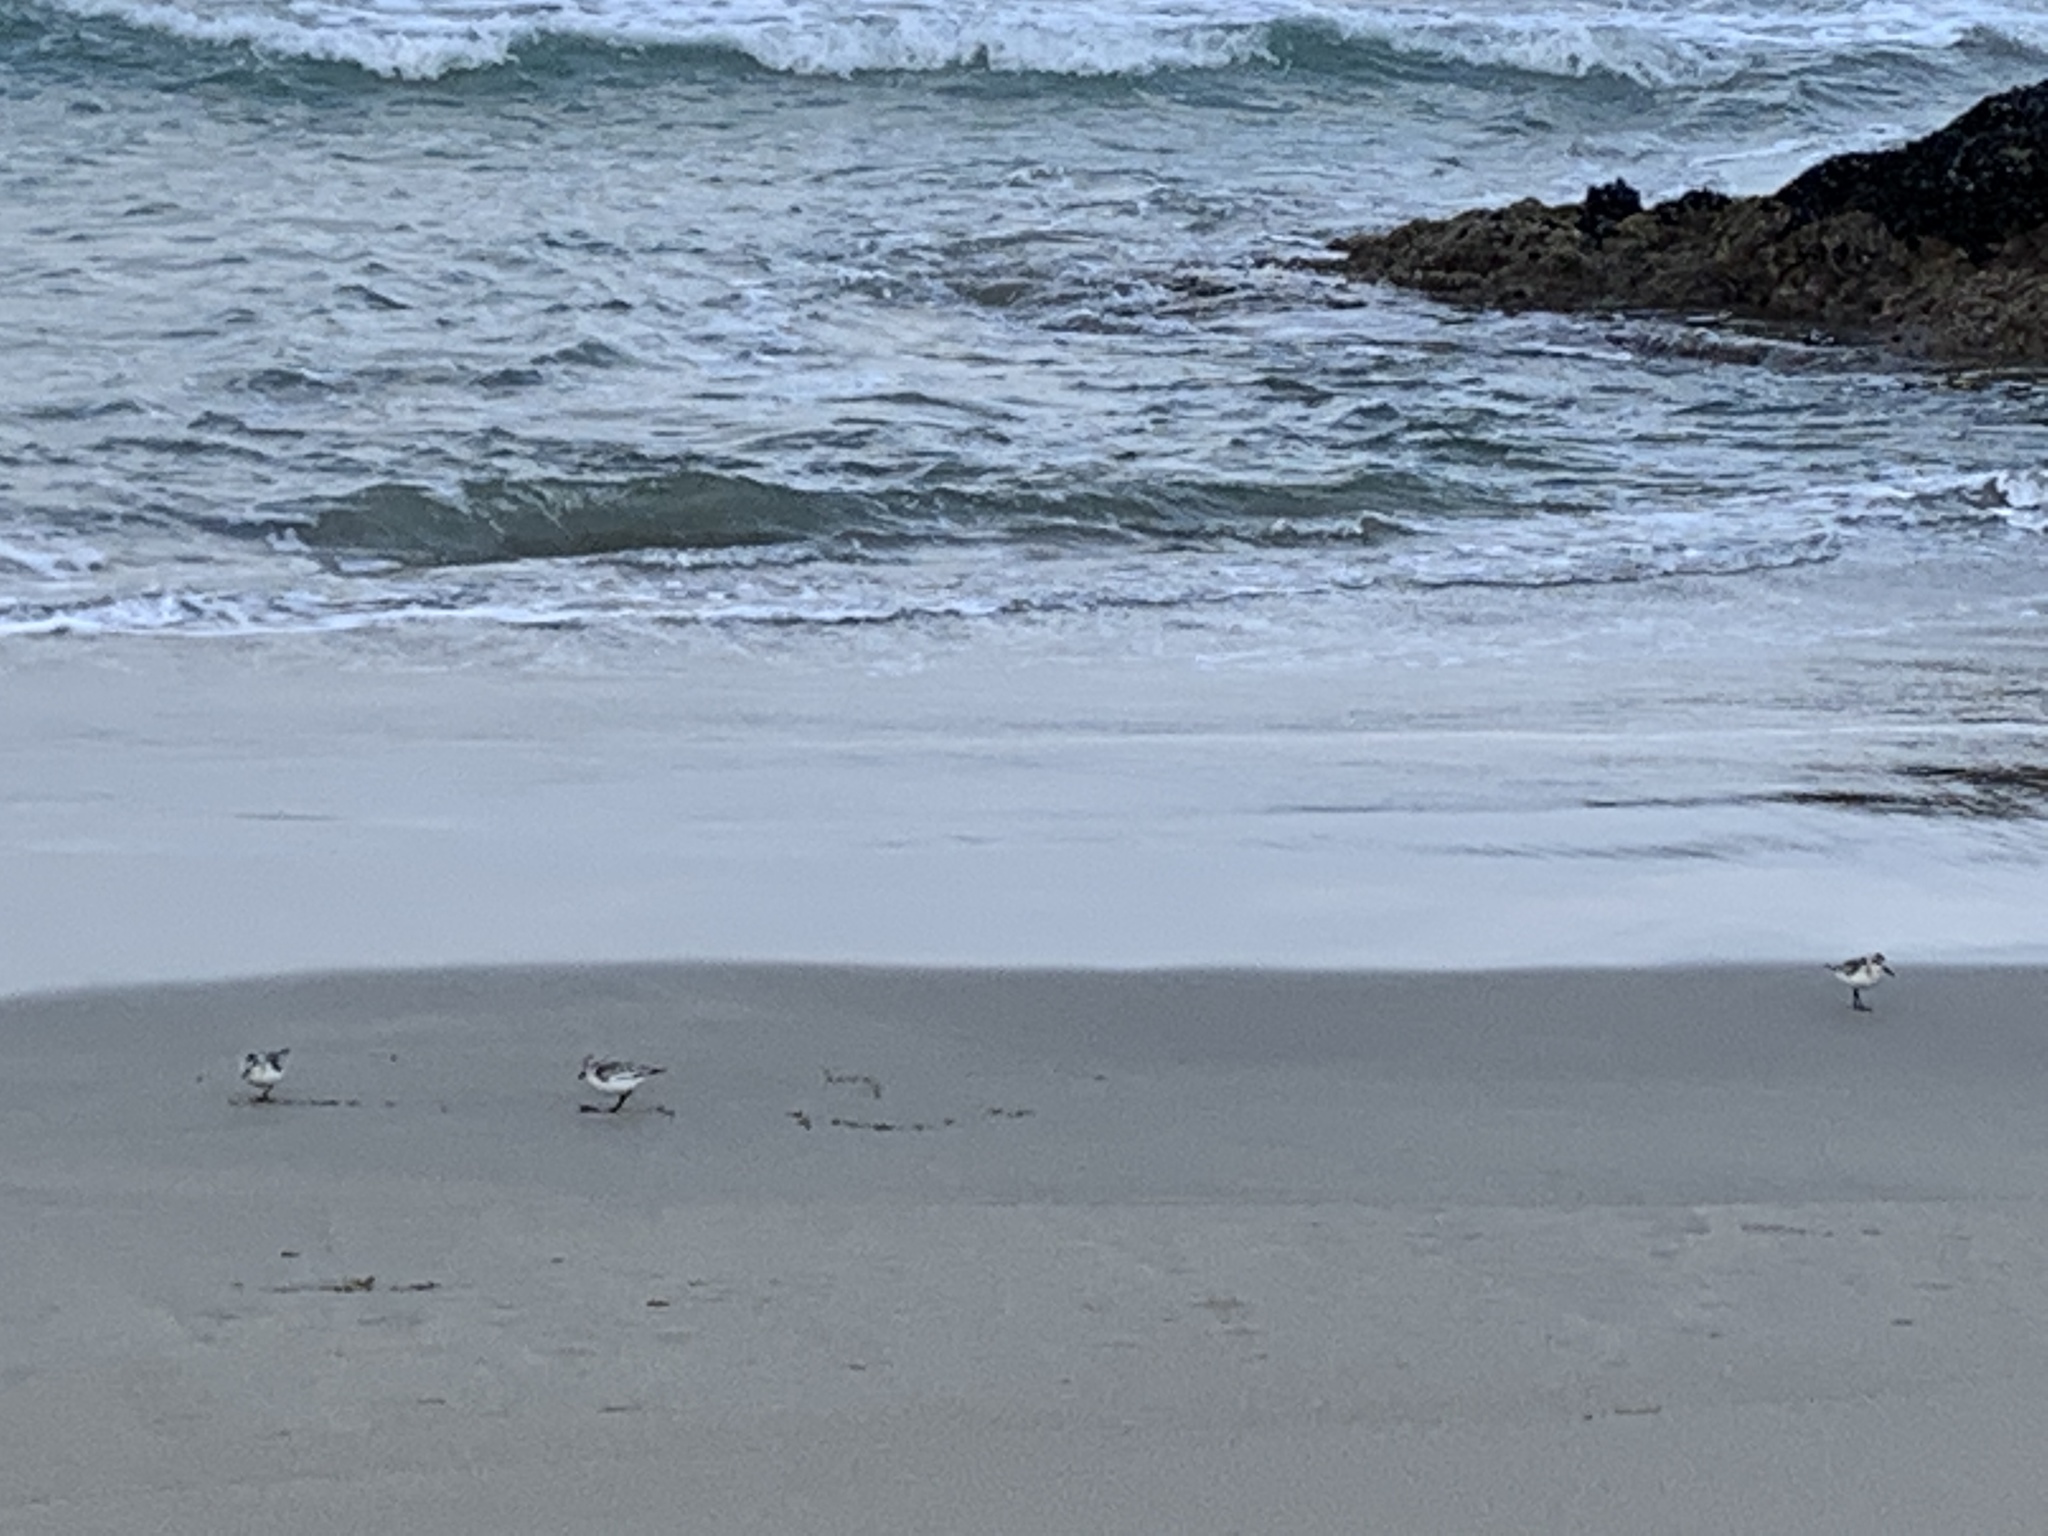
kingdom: Animalia
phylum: Chordata
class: Aves
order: Charadriiformes
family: Scolopacidae
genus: Calidris
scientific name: Calidris alba
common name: Sanderling
